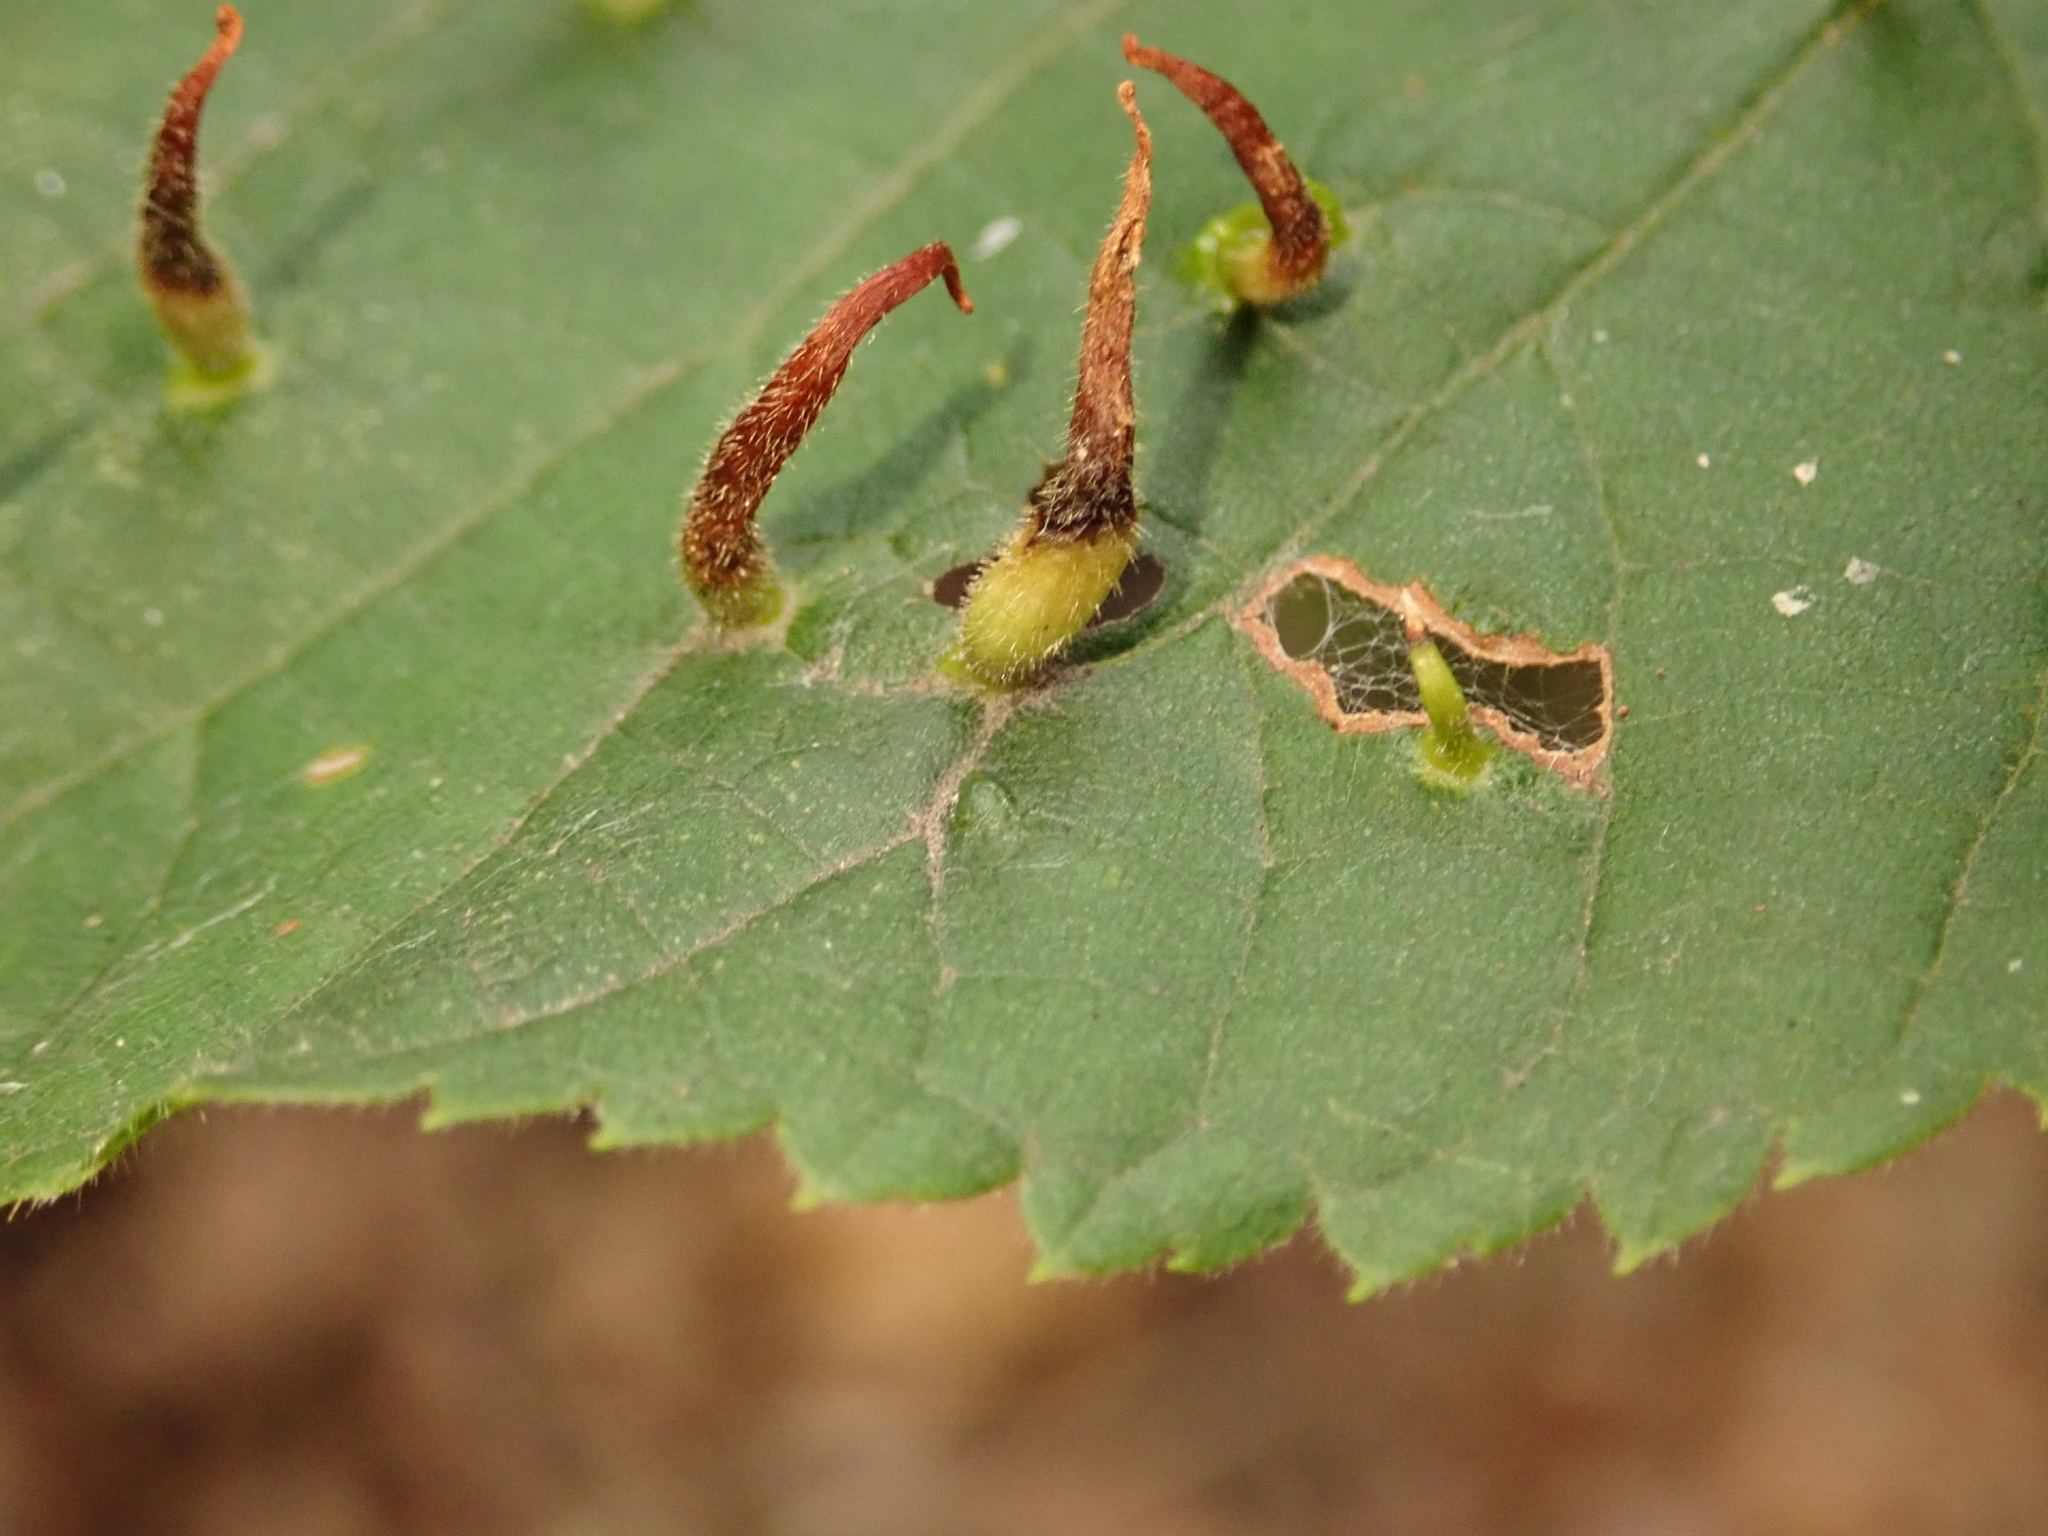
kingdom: Animalia
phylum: Arthropoda
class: Arachnida
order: Trombidiformes
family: Eriophyidae
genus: Eriophyes
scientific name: Eriophyes tiliae
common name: Red nail gall mite
